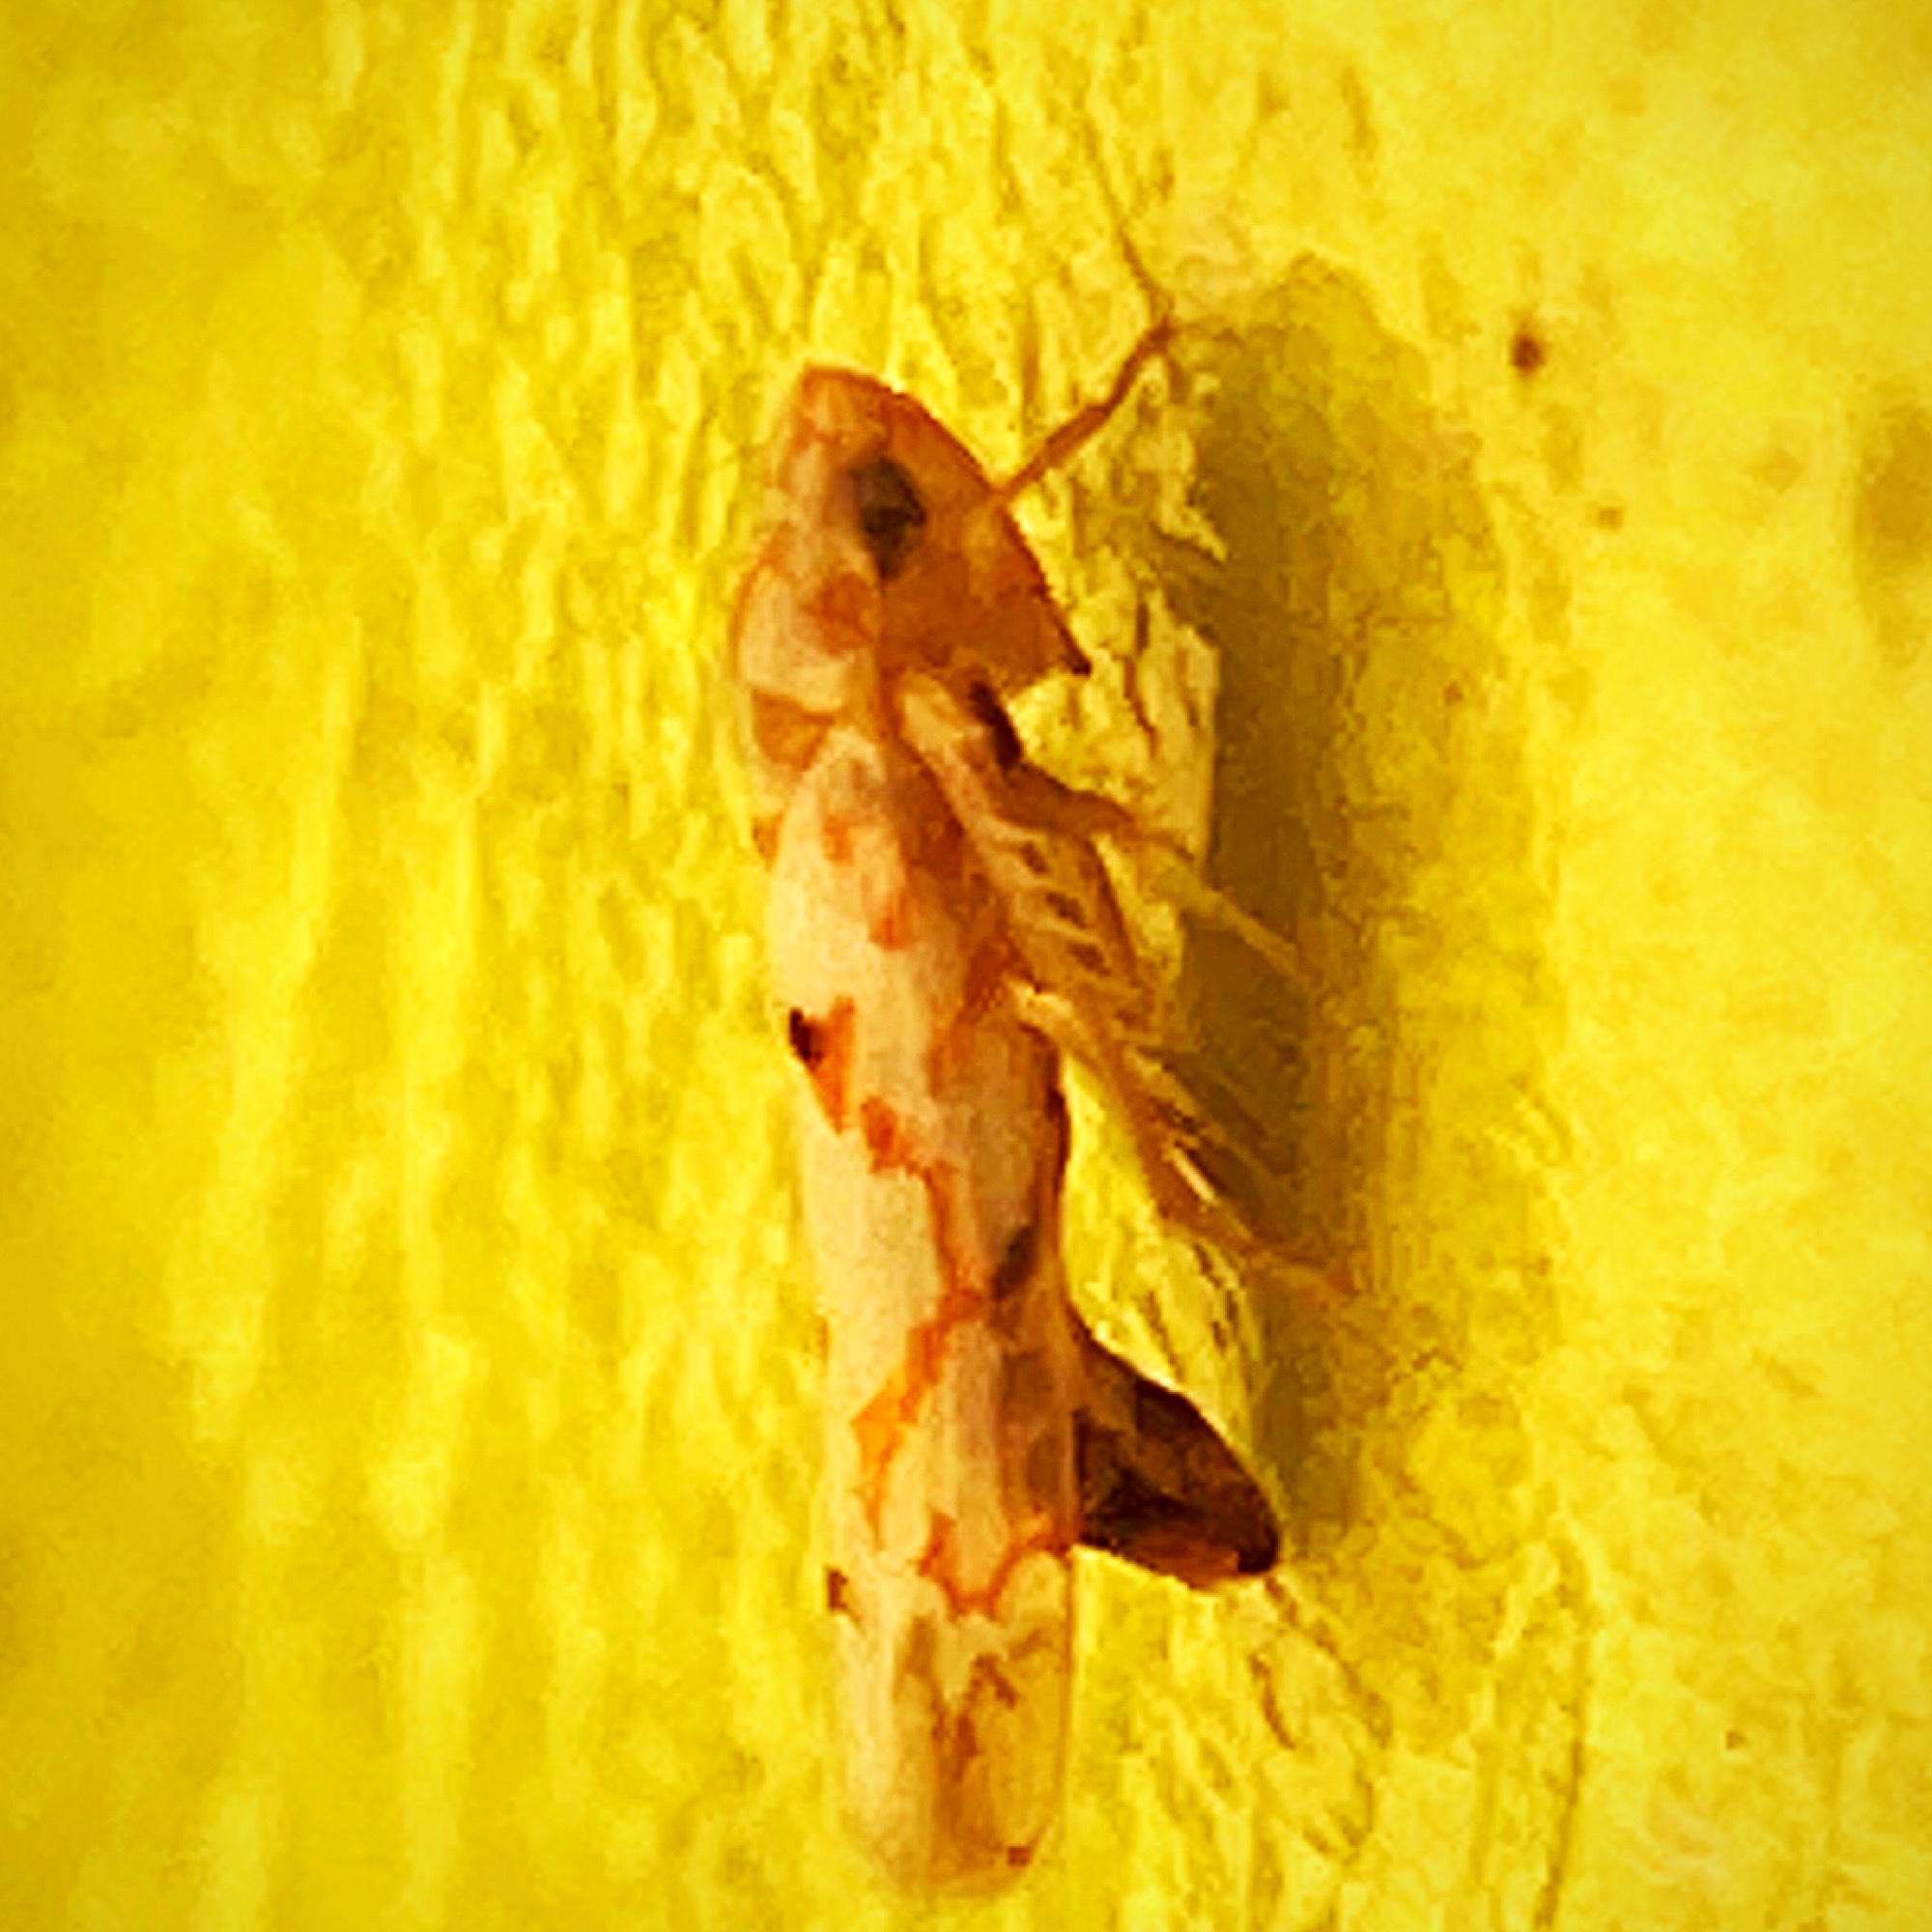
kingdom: Animalia
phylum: Arthropoda
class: Insecta
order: Hemiptera
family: Cicadellidae
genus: Erythroneura
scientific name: Erythroneura delicata
